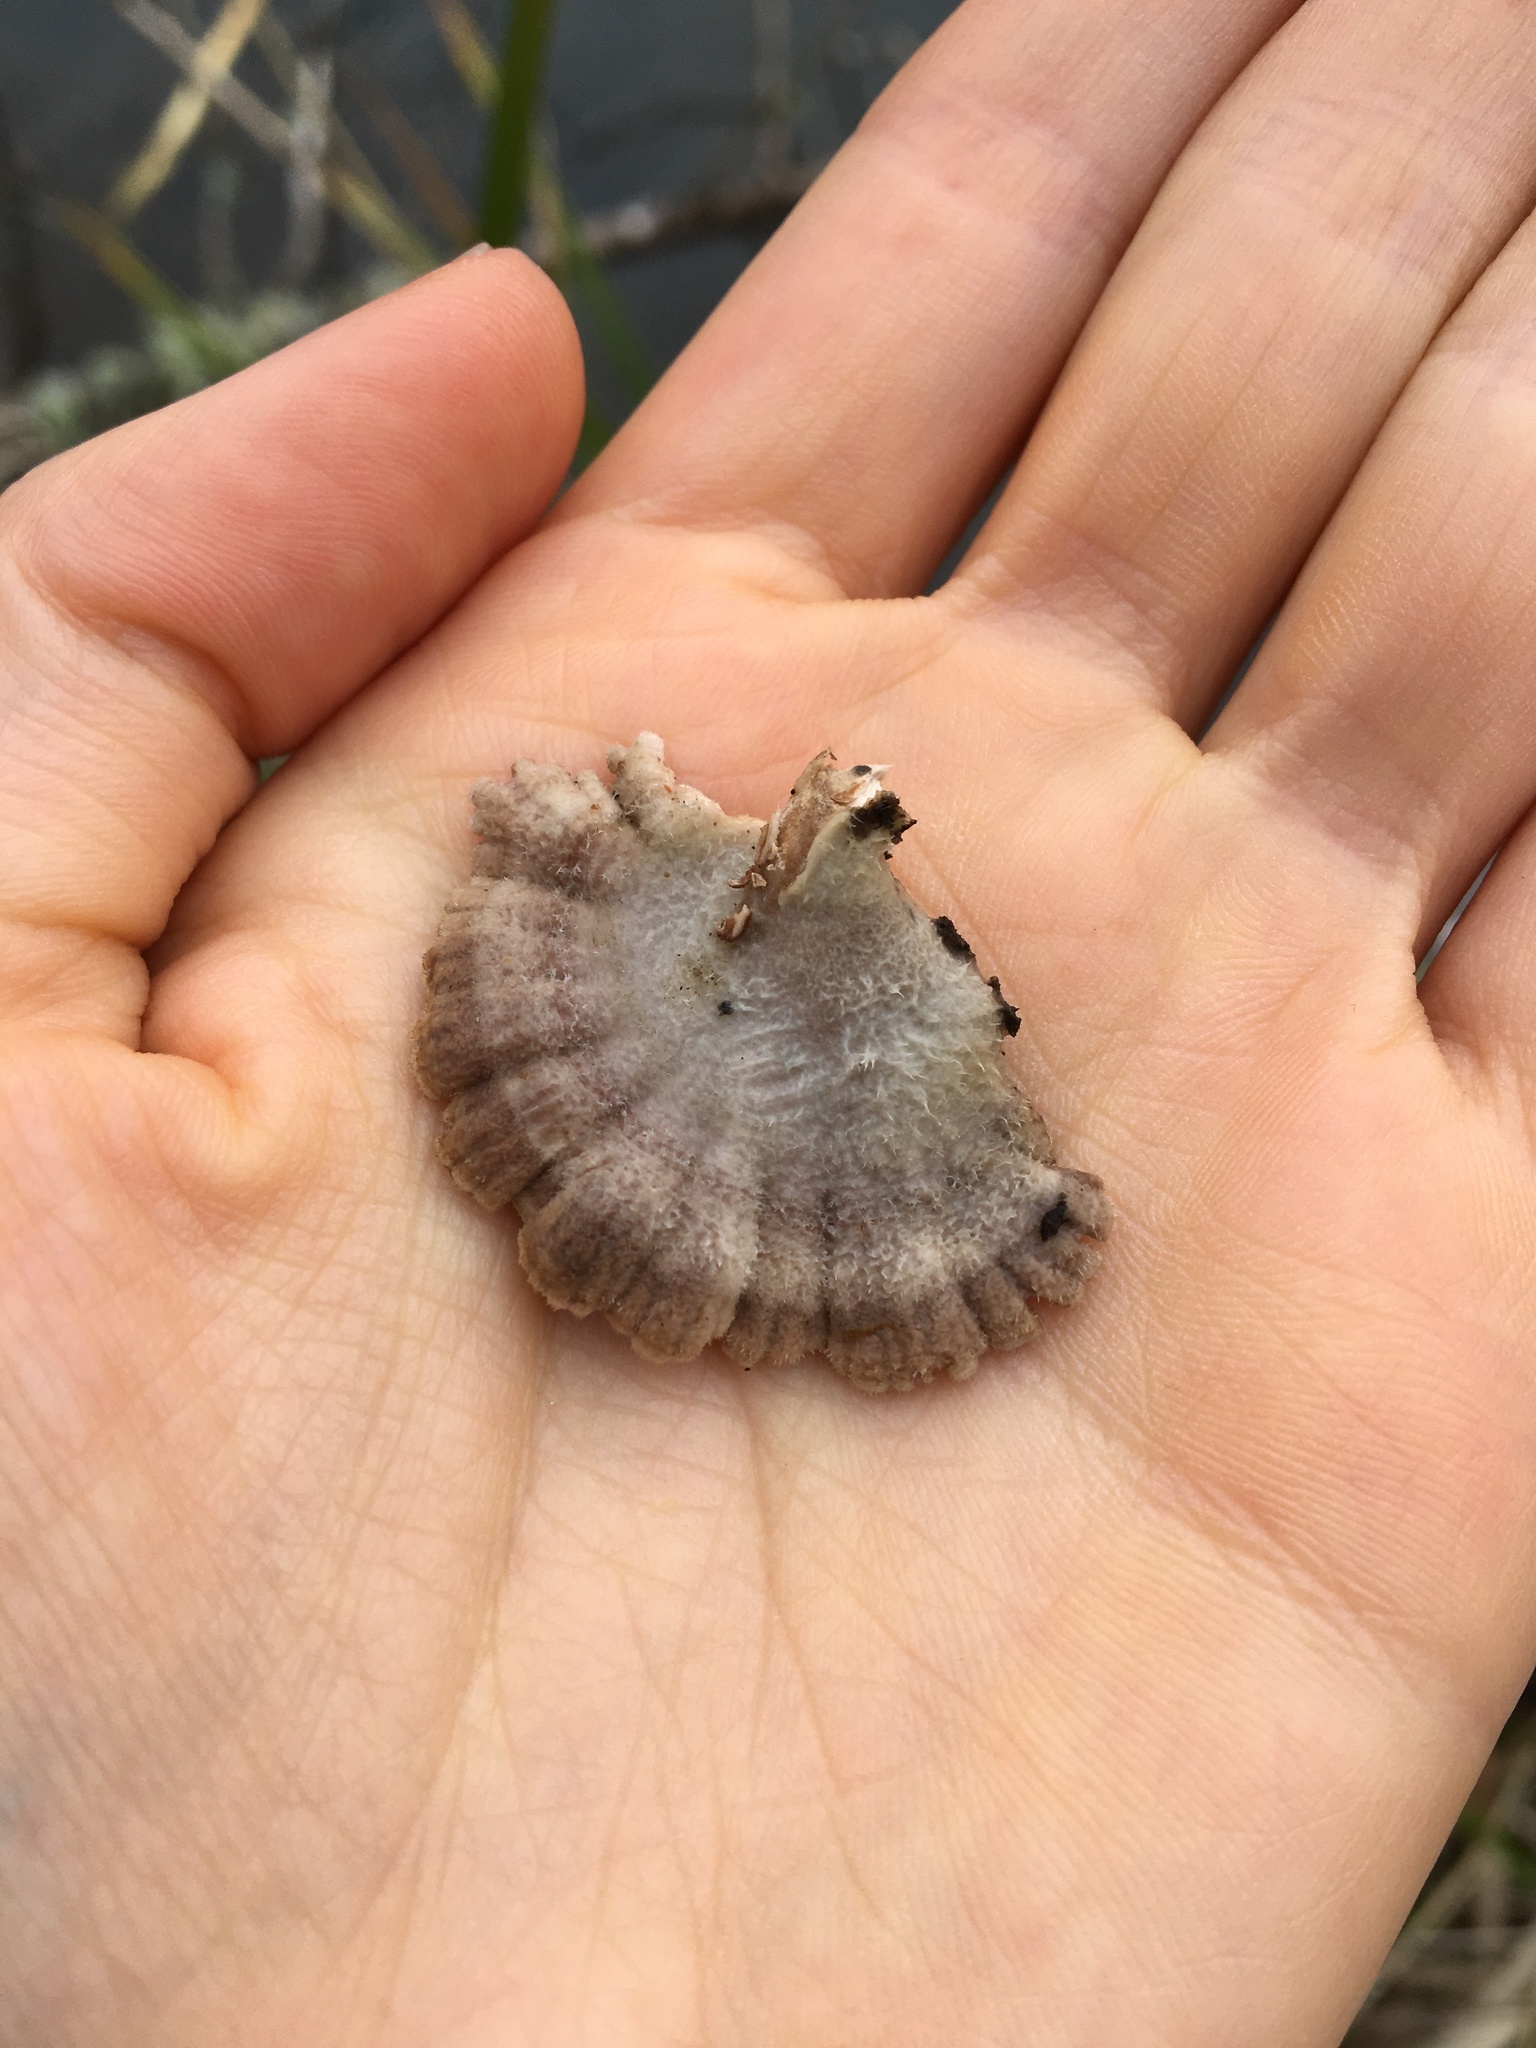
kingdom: Fungi
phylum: Basidiomycota
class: Agaricomycetes
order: Agaricales
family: Schizophyllaceae
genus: Schizophyllum
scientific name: Schizophyllum commune
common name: Common porecrust
